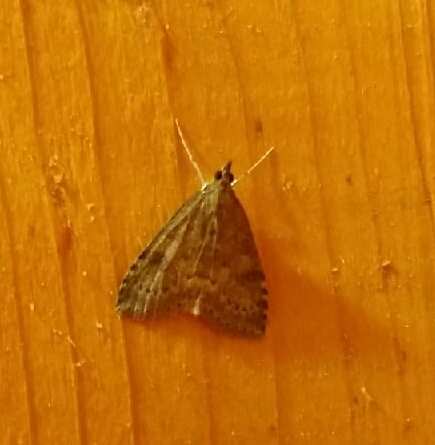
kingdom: Animalia
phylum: Arthropoda
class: Insecta
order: Lepidoptera
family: Crambidae
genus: Udea
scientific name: Udea prunalis
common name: Dusky pearl
